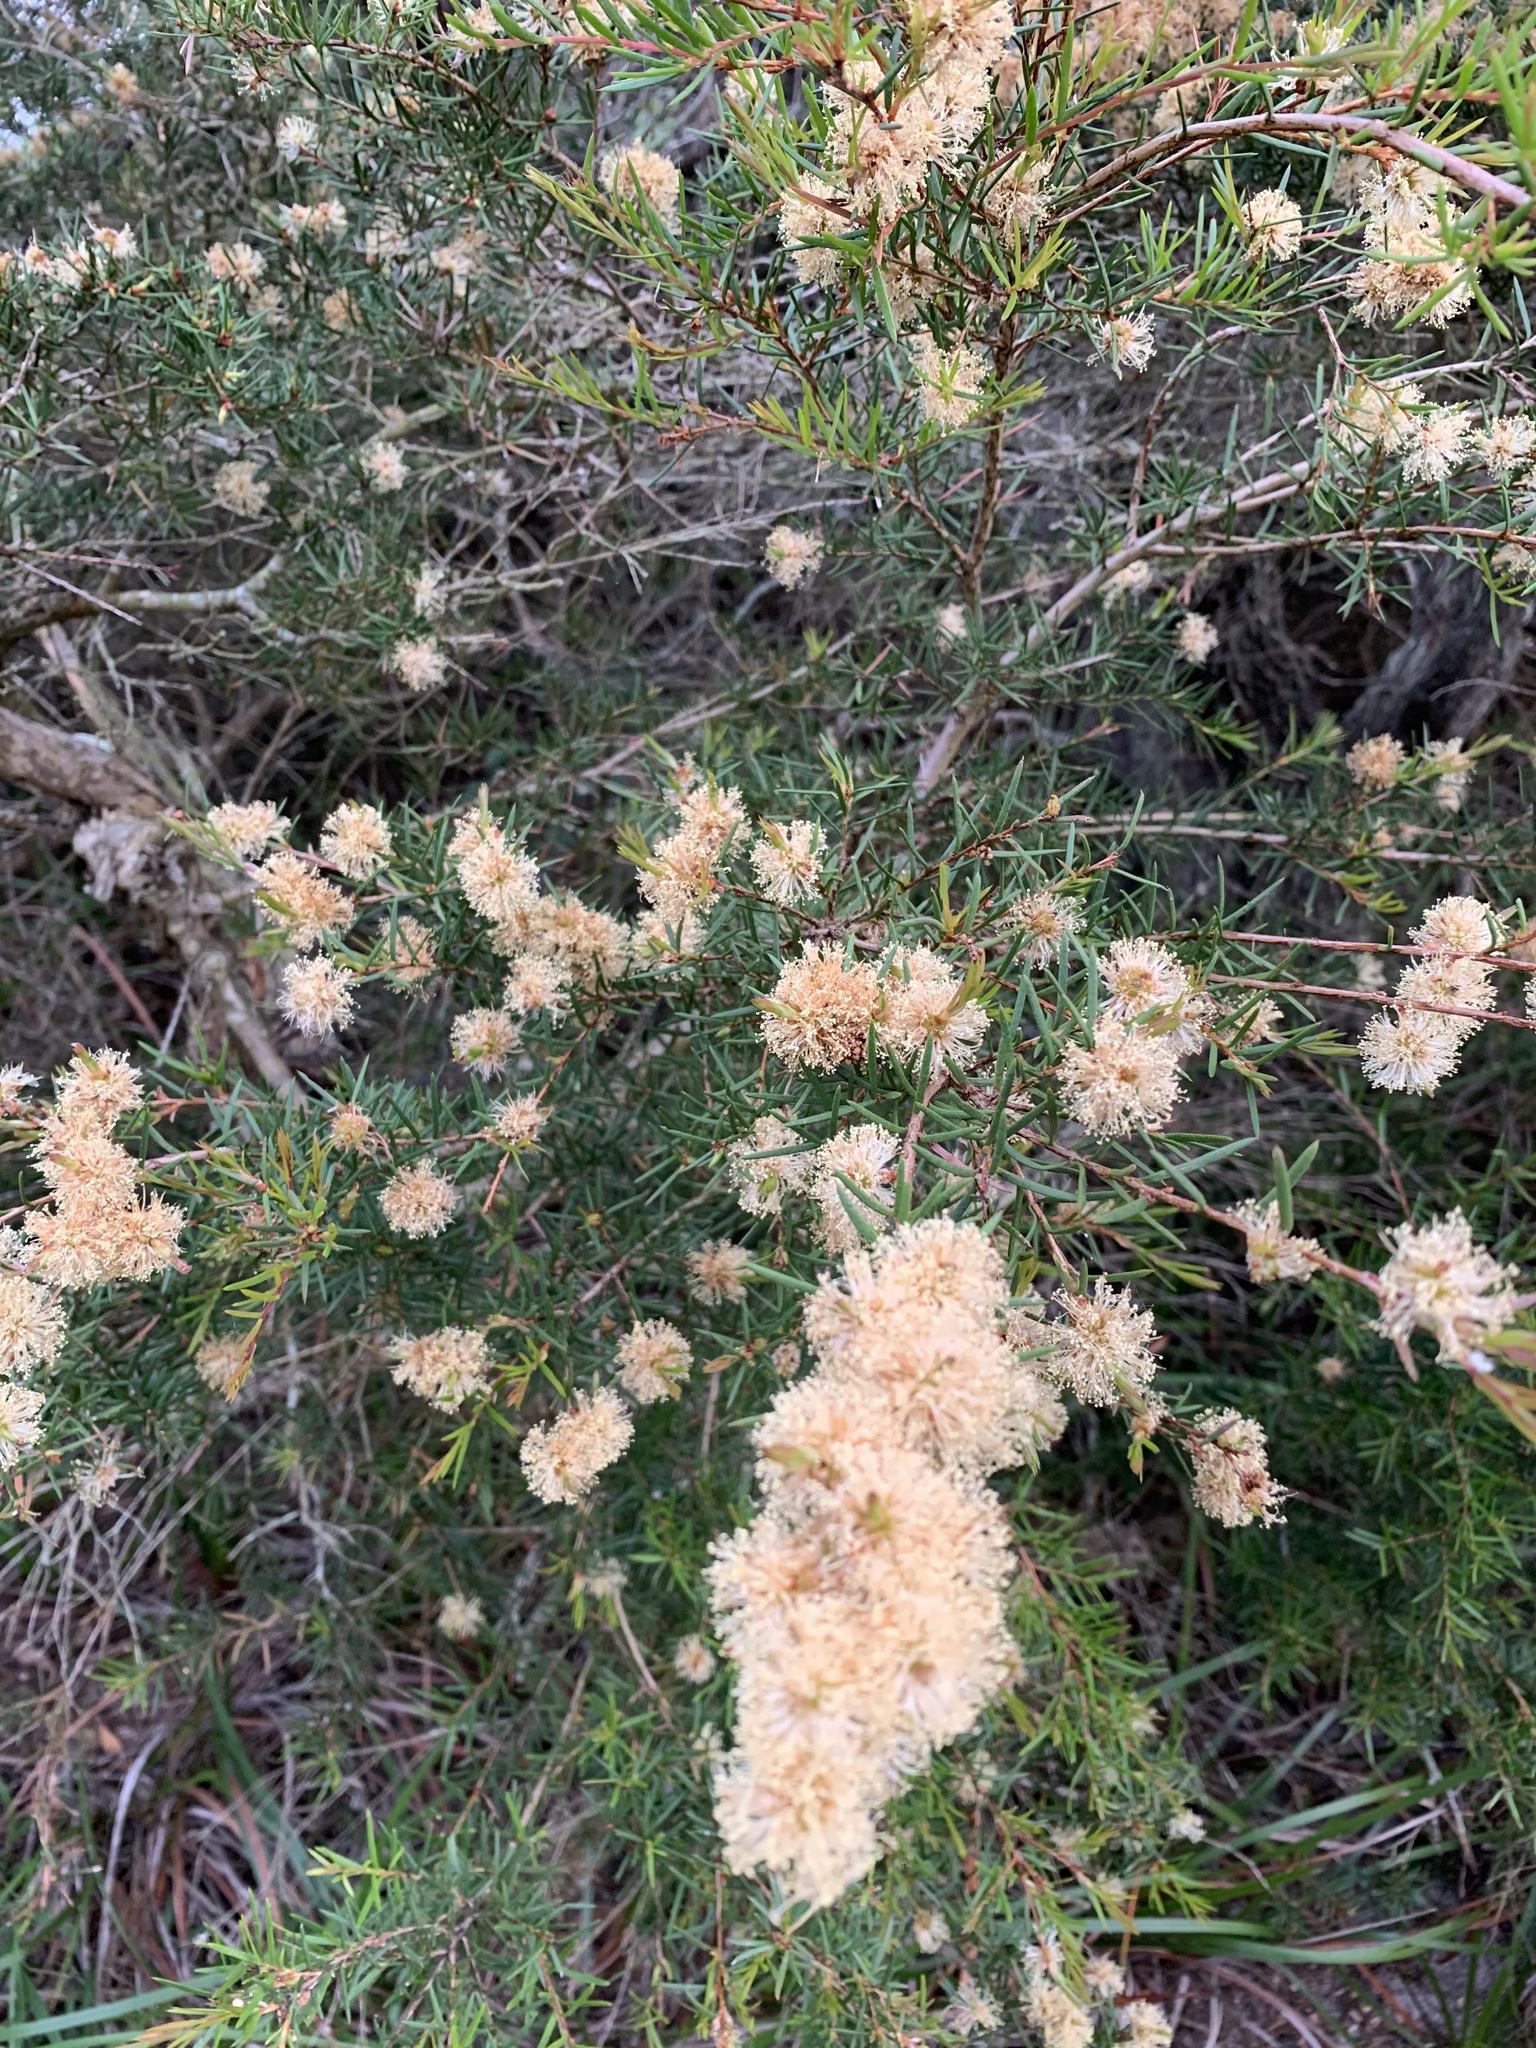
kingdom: Plantae
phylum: Tracheophyta
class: Magnoliopsida
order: Myrtales
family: Myrtaceae
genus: Melaleuca
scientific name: Melaleuca nodosa
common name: Prickly-leaf paperbark
